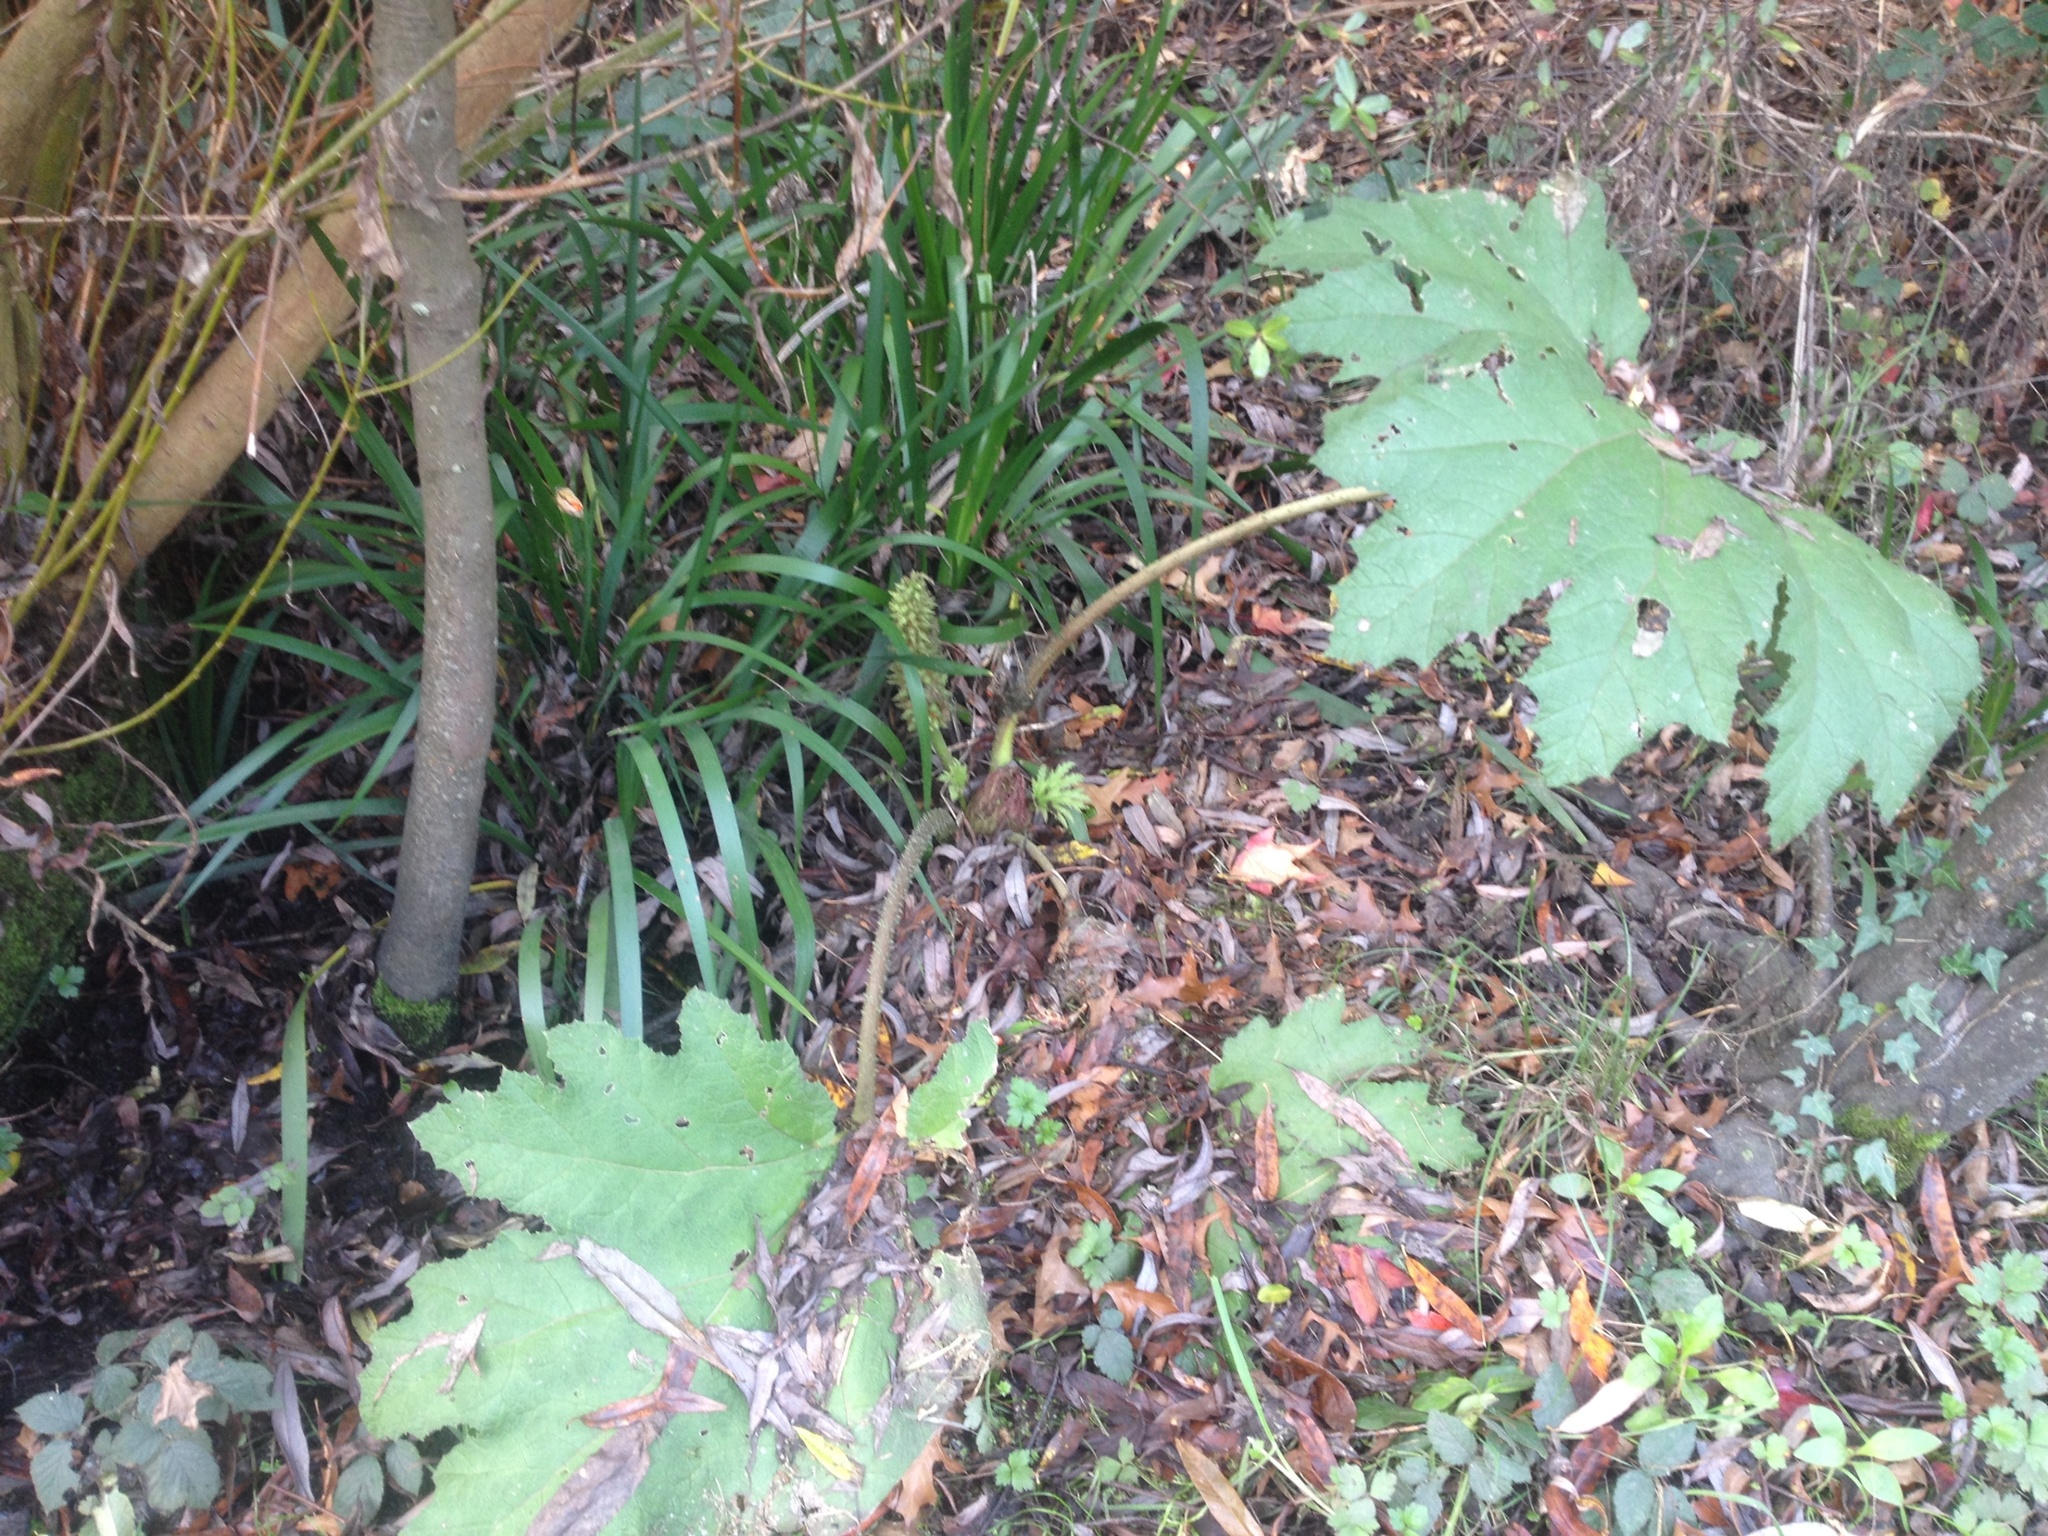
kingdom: Plantae
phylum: Tracheophyta
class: Magnoliopsida
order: Gunnerales
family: Gunneraceae
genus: Gunnera
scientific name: Gunnera tinctoria
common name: Giant-rhubarb
